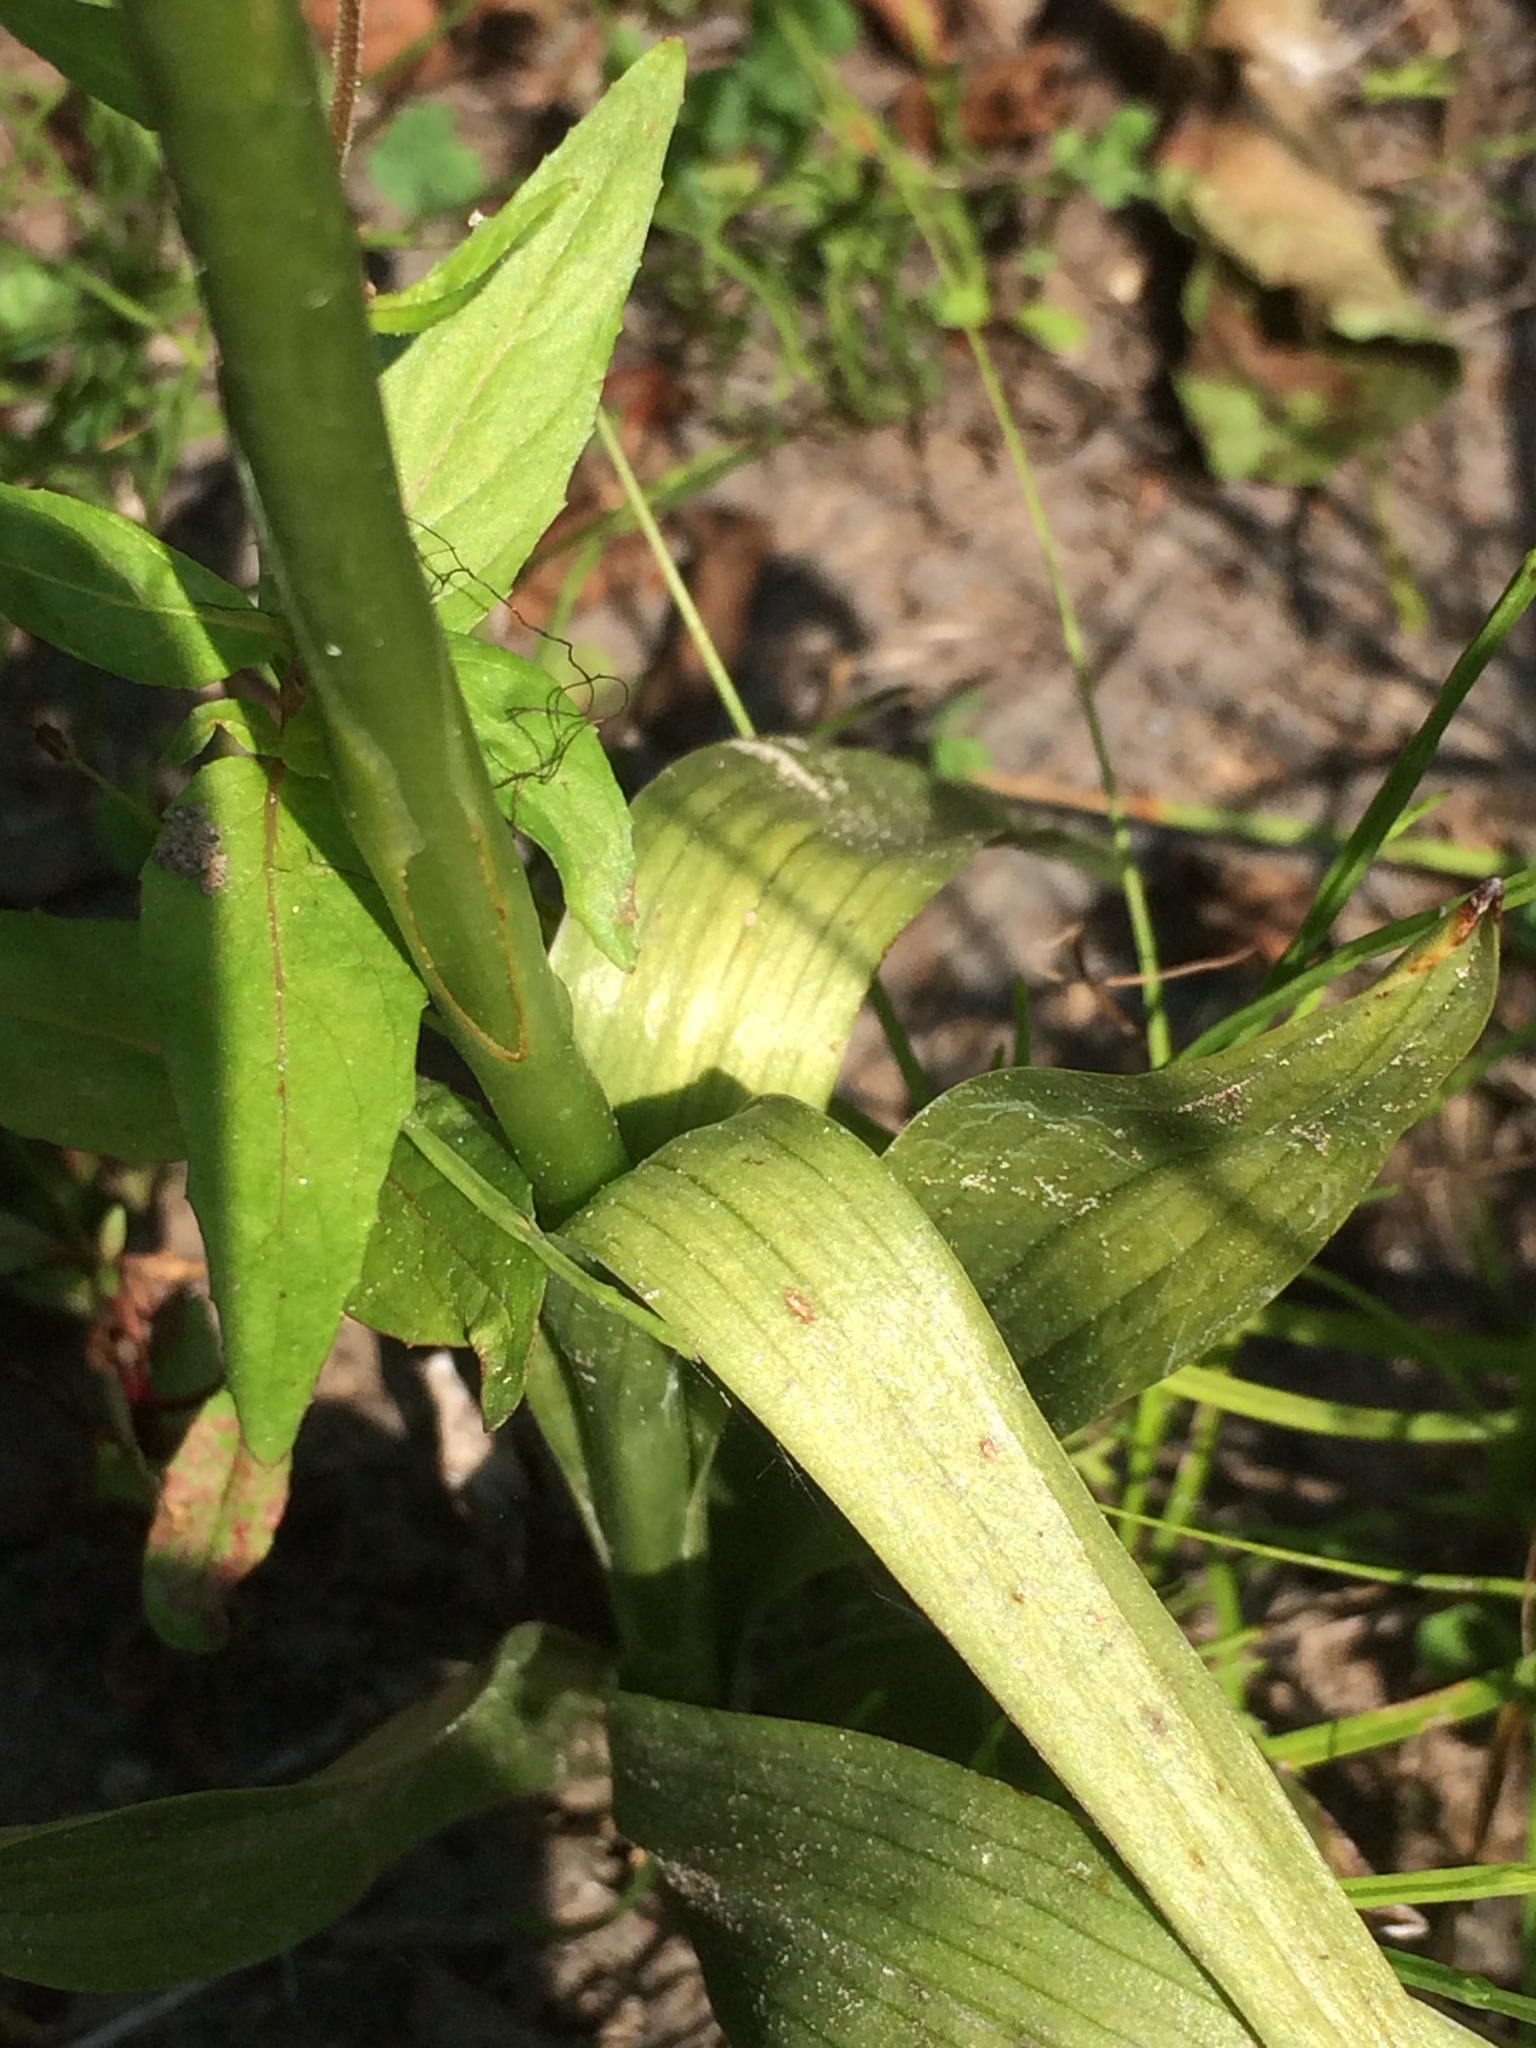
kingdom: Plantae
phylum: Tracheophyta
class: Liliopsida
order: Asparagales
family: Orchidaceae
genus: Spiranthes
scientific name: Spiranthes romanzoffiana
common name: Irish lady's-tresses
